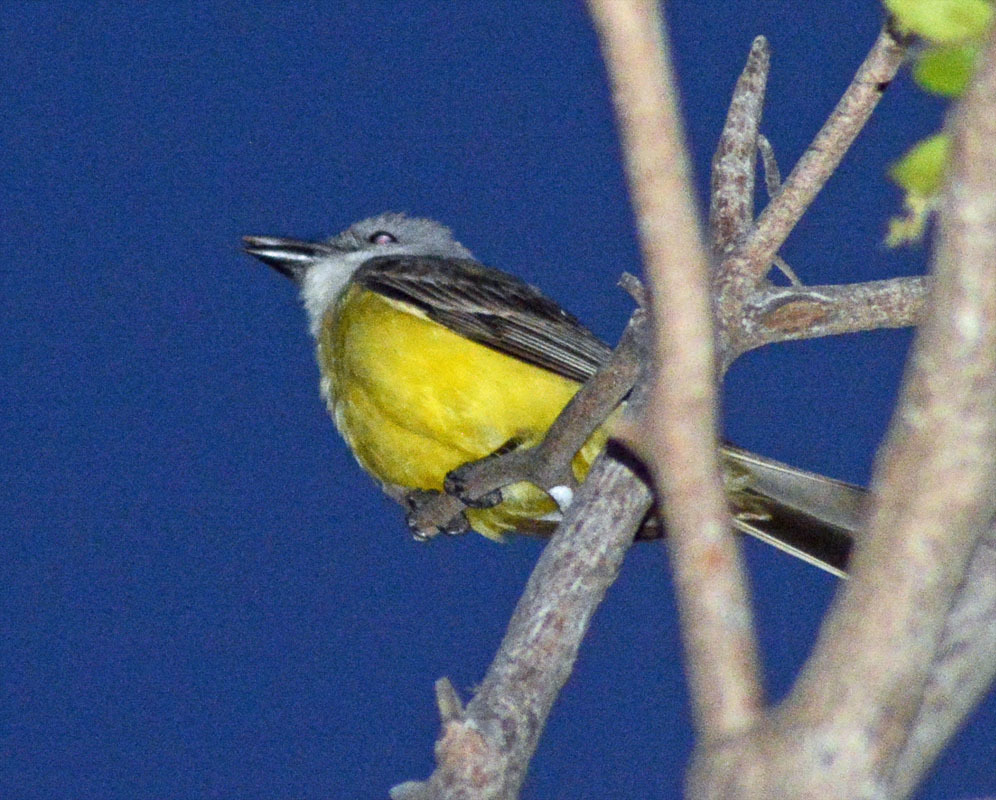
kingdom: Animalia
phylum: Chordata
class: Aves
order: Passeriformes
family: Tyrannidae
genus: Tyrannus
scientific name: Tyrannus melancholicus
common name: Tropical kingbird
